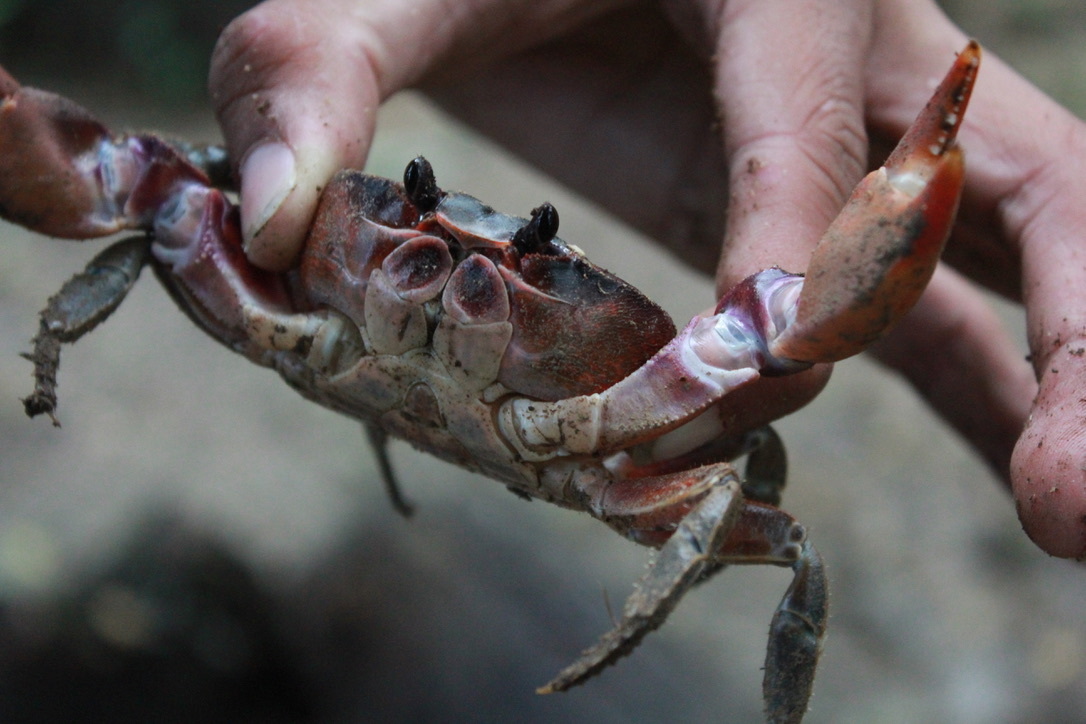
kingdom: Animalia
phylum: Arthropoda
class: Malacostraca
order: Decapoda
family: Gecarcinidae
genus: Gecarcinus
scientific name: Gecarcinus lateralis
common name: Bermuda land crab
